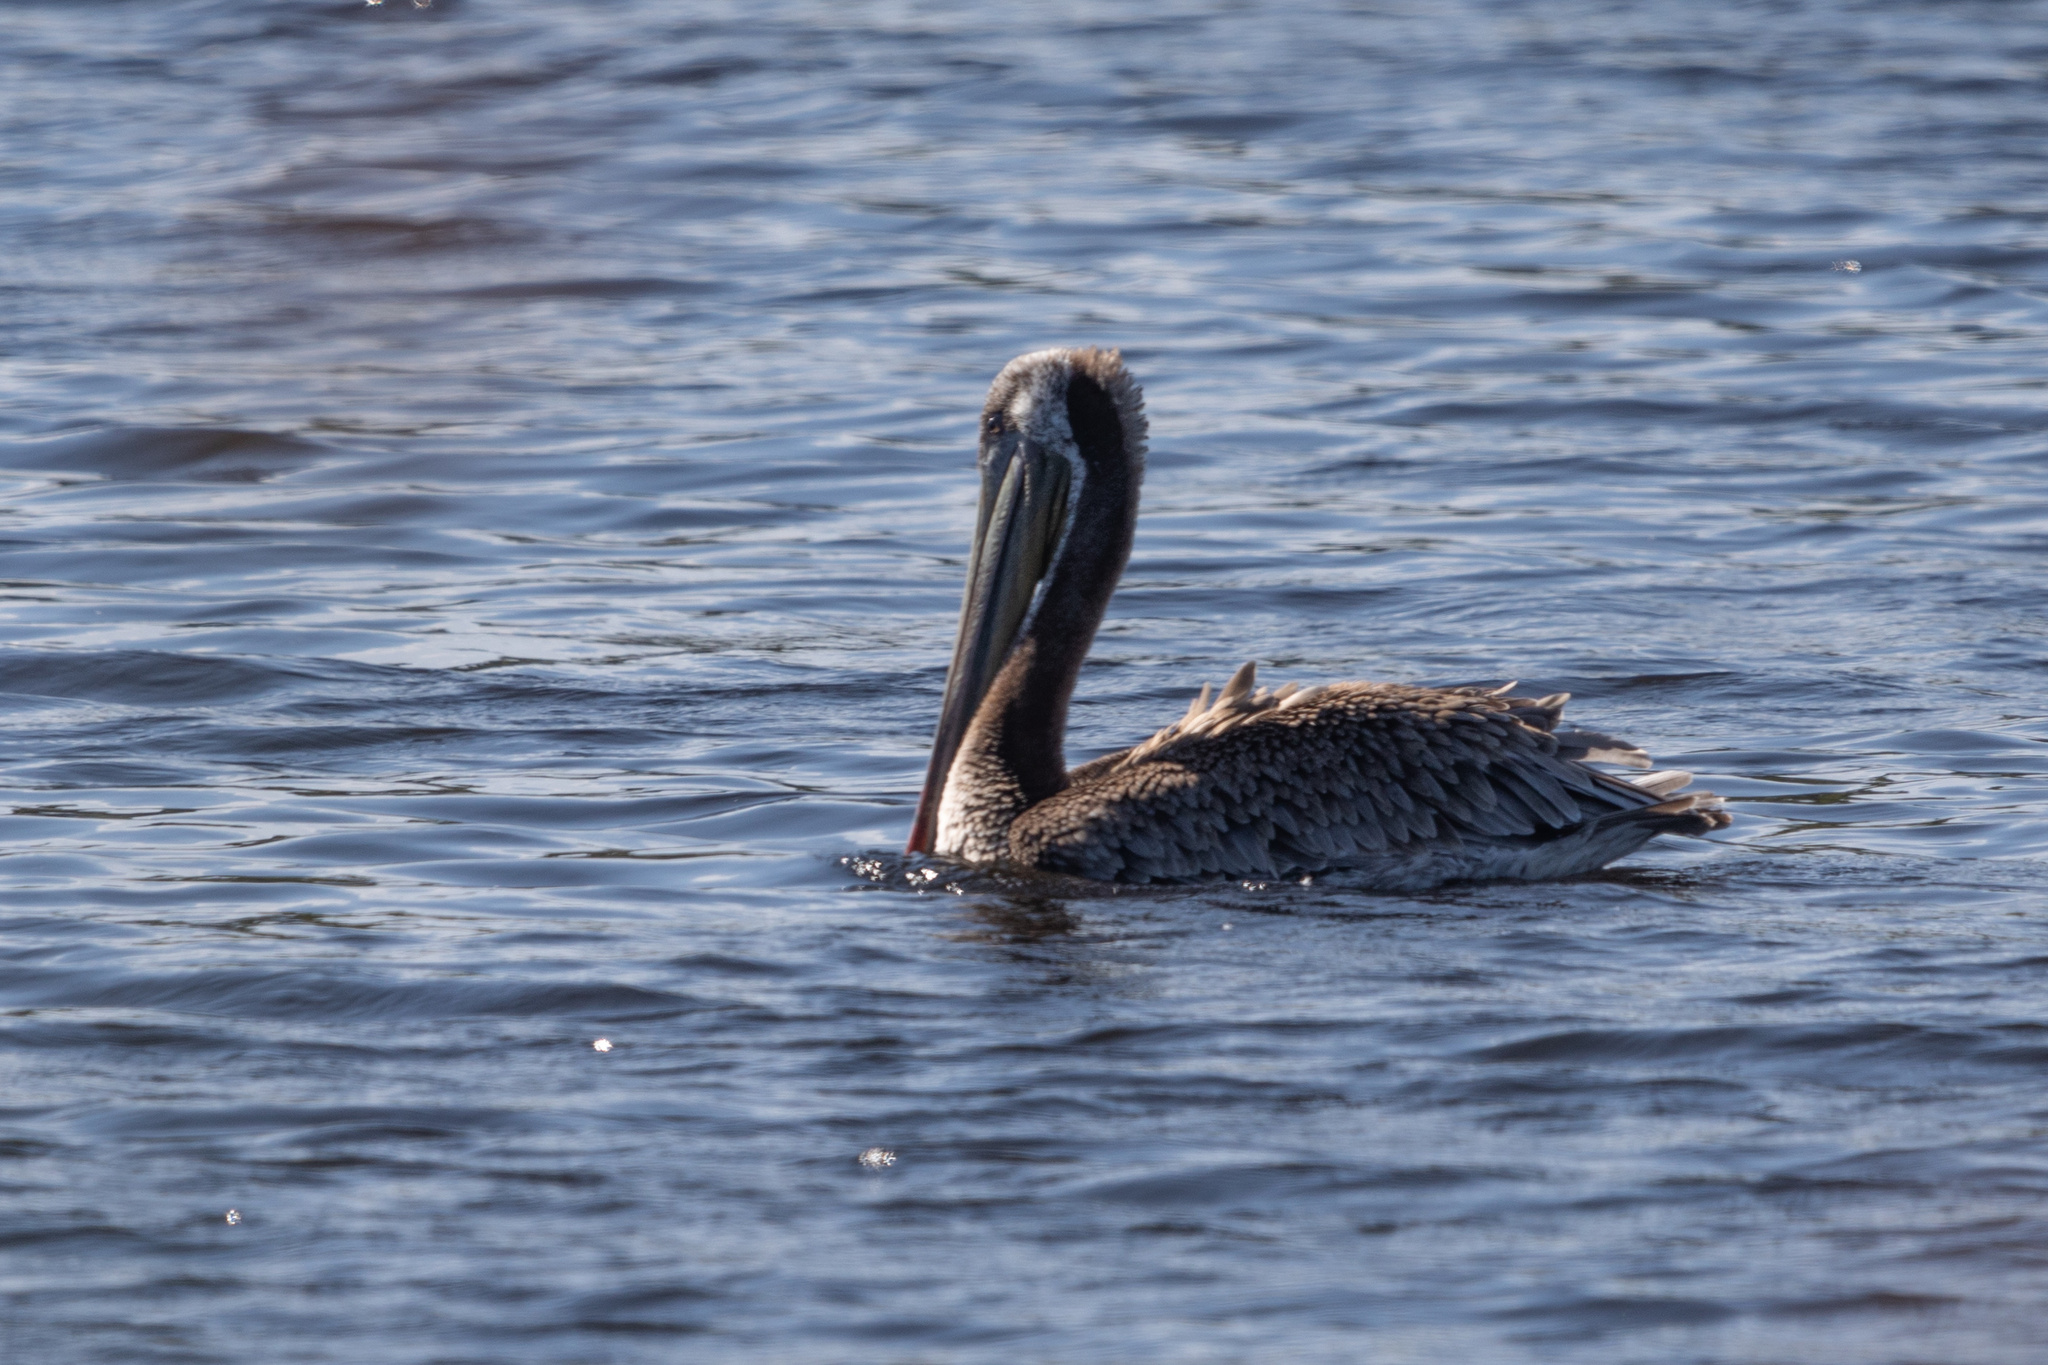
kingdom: Animalia
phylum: Chordata
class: Aves
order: Pelecaniformes
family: Pelecanidae
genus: Pelecanus
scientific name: Pelecanus occidentalis
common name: Brown pelican
